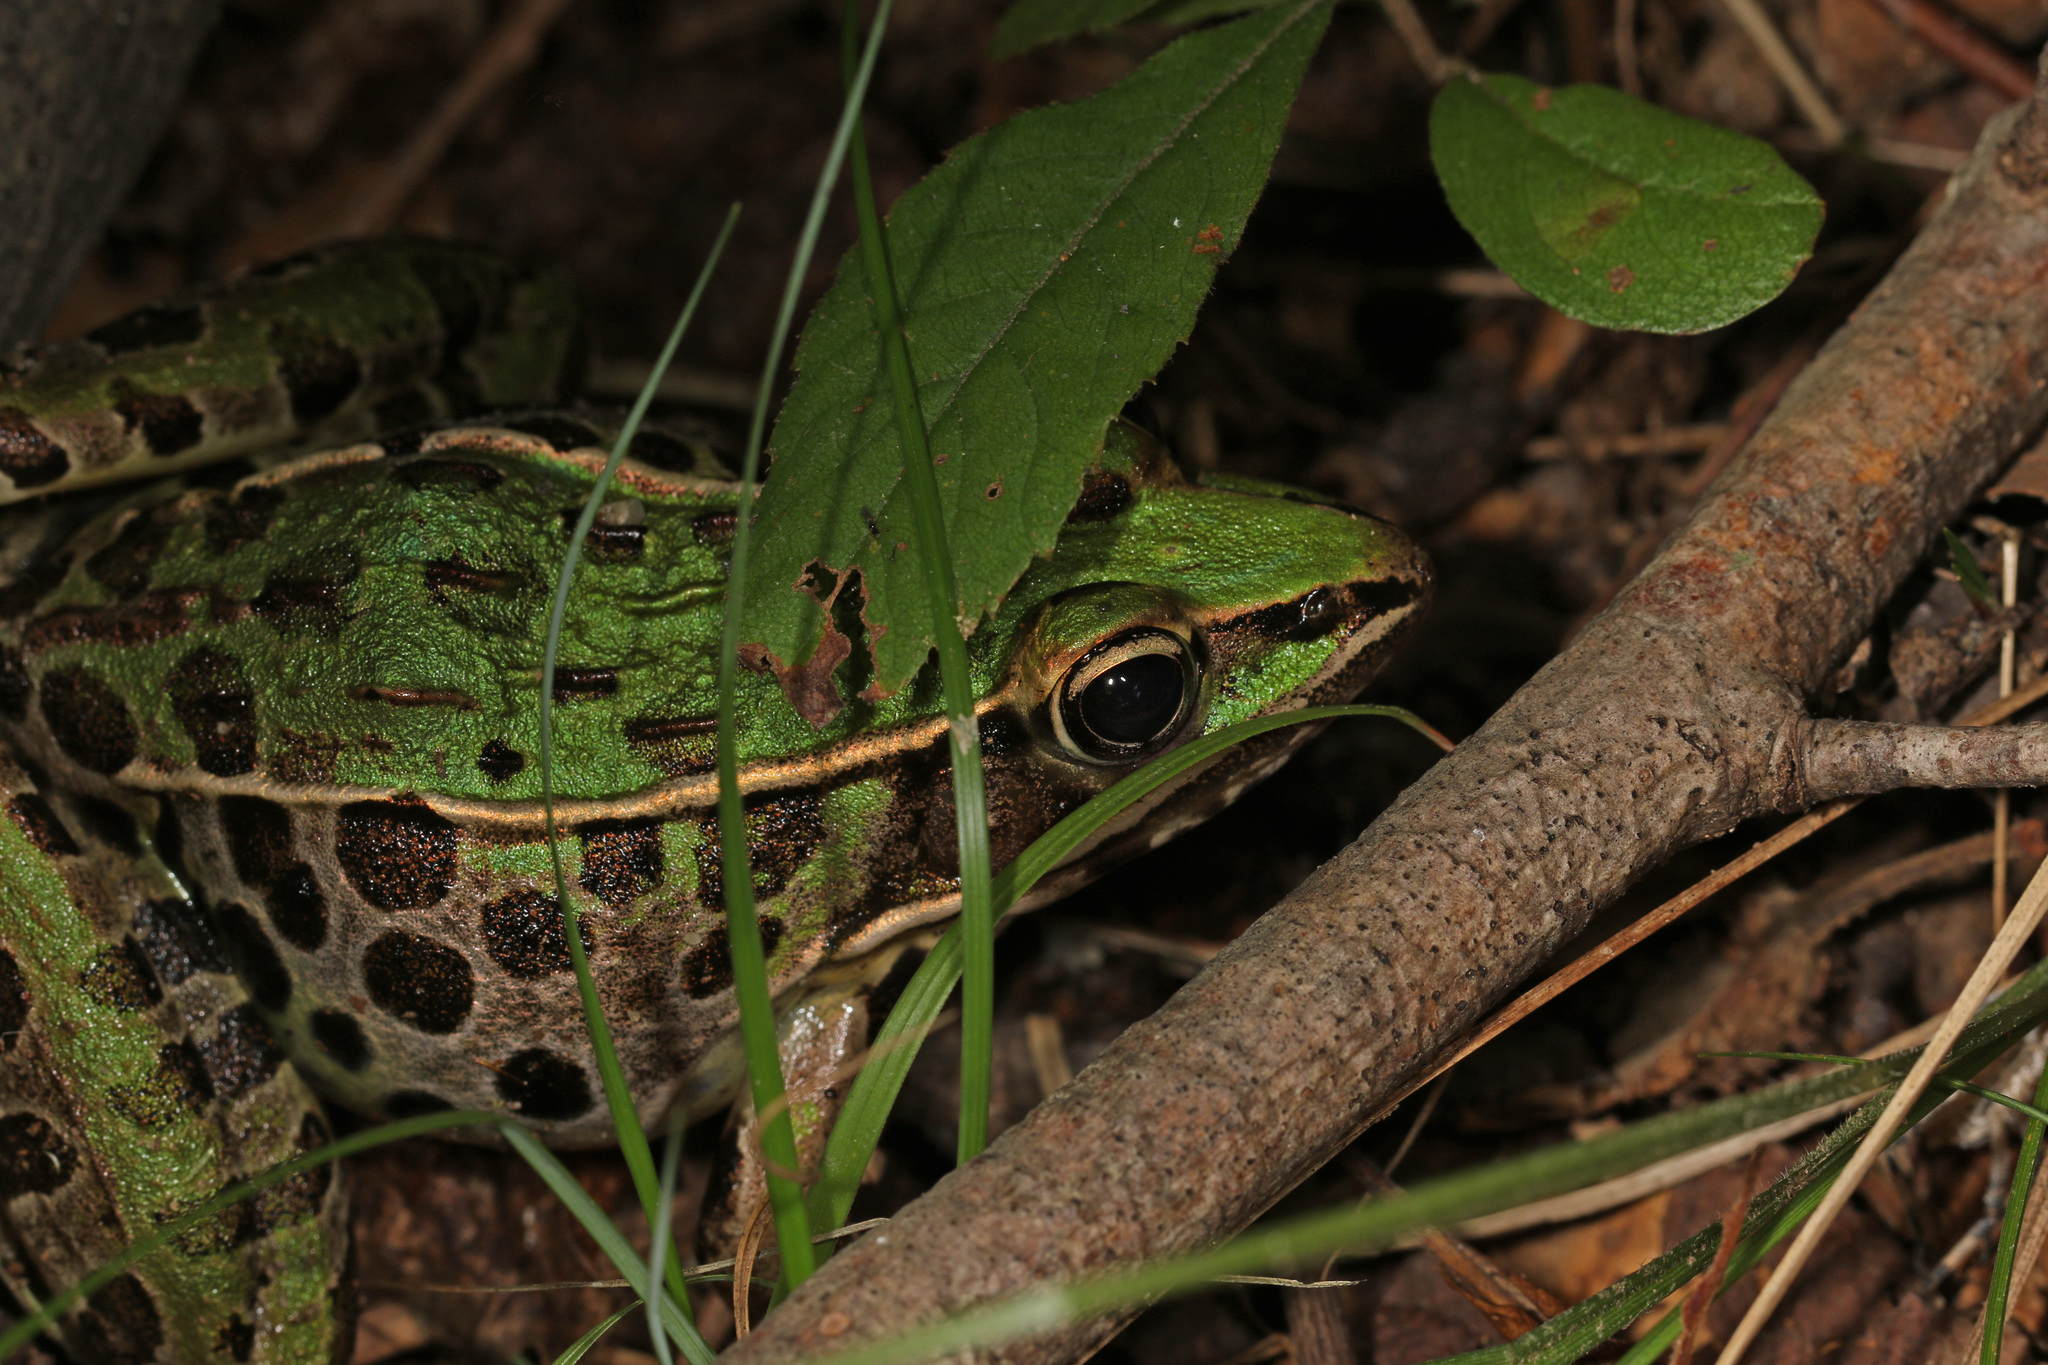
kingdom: Animalia
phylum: Chordata
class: Amphibia
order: Anura
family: Ranidae
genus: Lithobates
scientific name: Lithobates sphenocephalus
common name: Southern leopard frog
